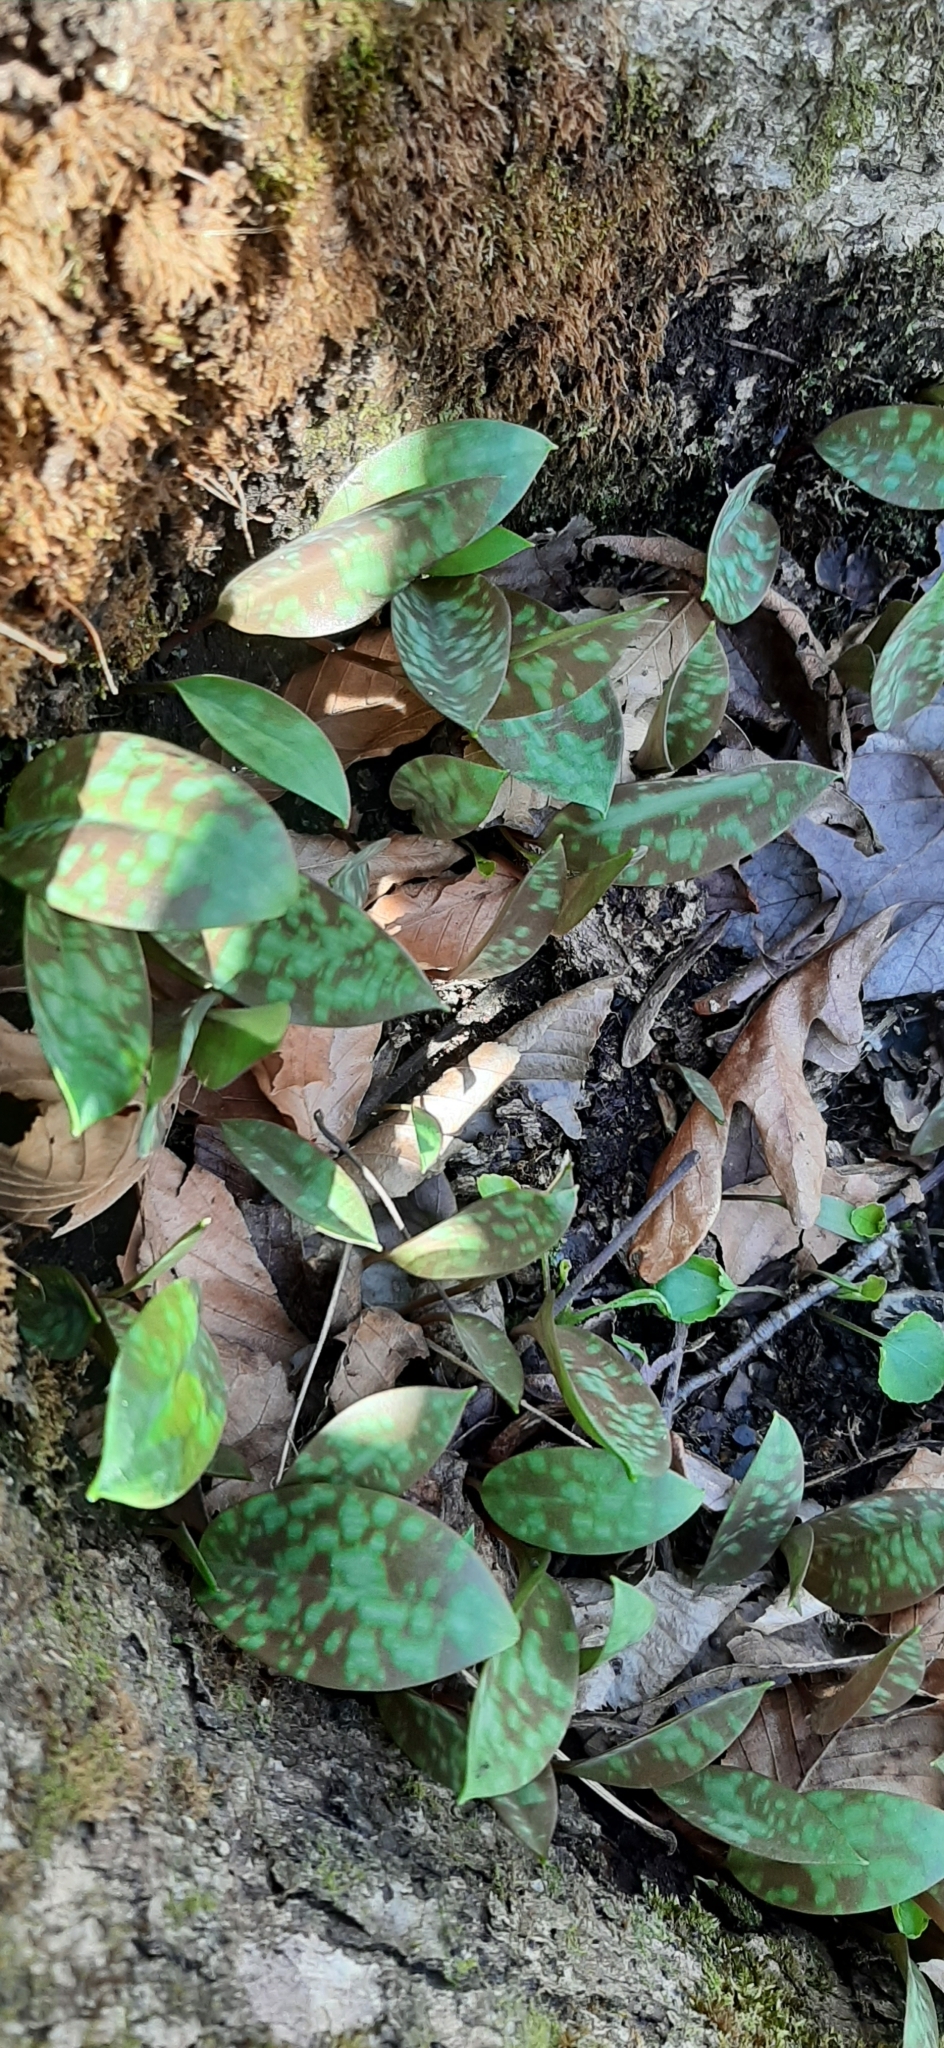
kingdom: Plantae
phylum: Tracheophyta
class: Liliopsida
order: Liliales
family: Liliaceae
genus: Erythronium
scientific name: Erythronium americanum
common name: Yellow adder's-tongue
